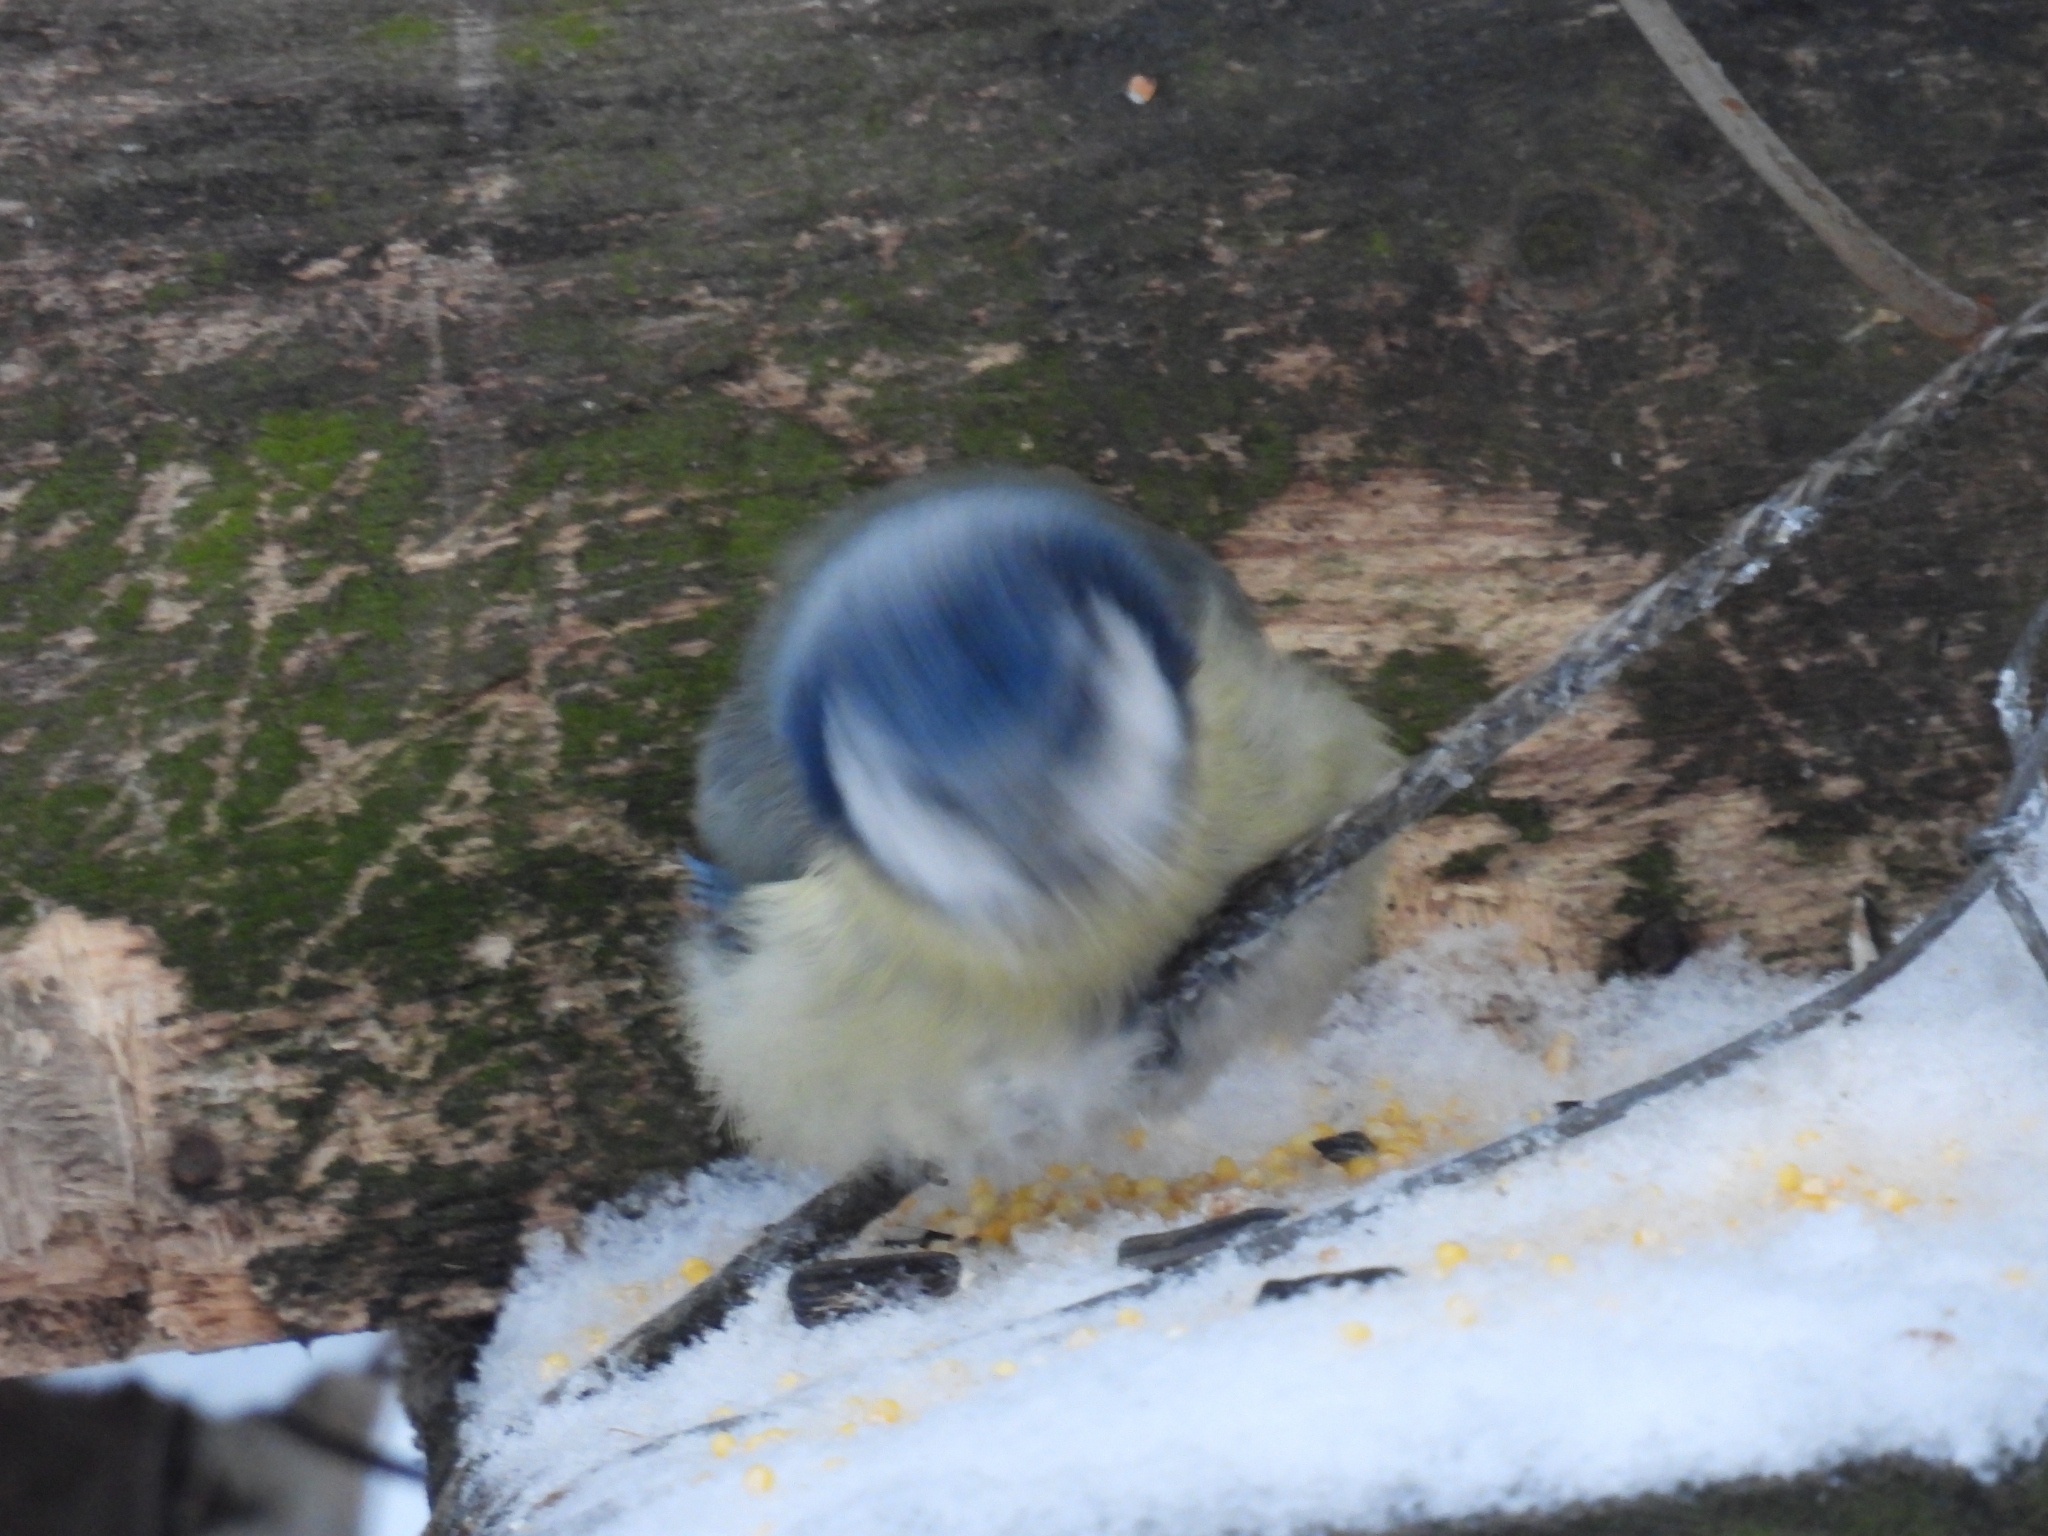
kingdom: Animalia
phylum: Chordata
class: Aves
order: Passeriformes
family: Paridae
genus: Cyanistes
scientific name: Cyanistes caeruleus
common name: Eurasian blue tit
